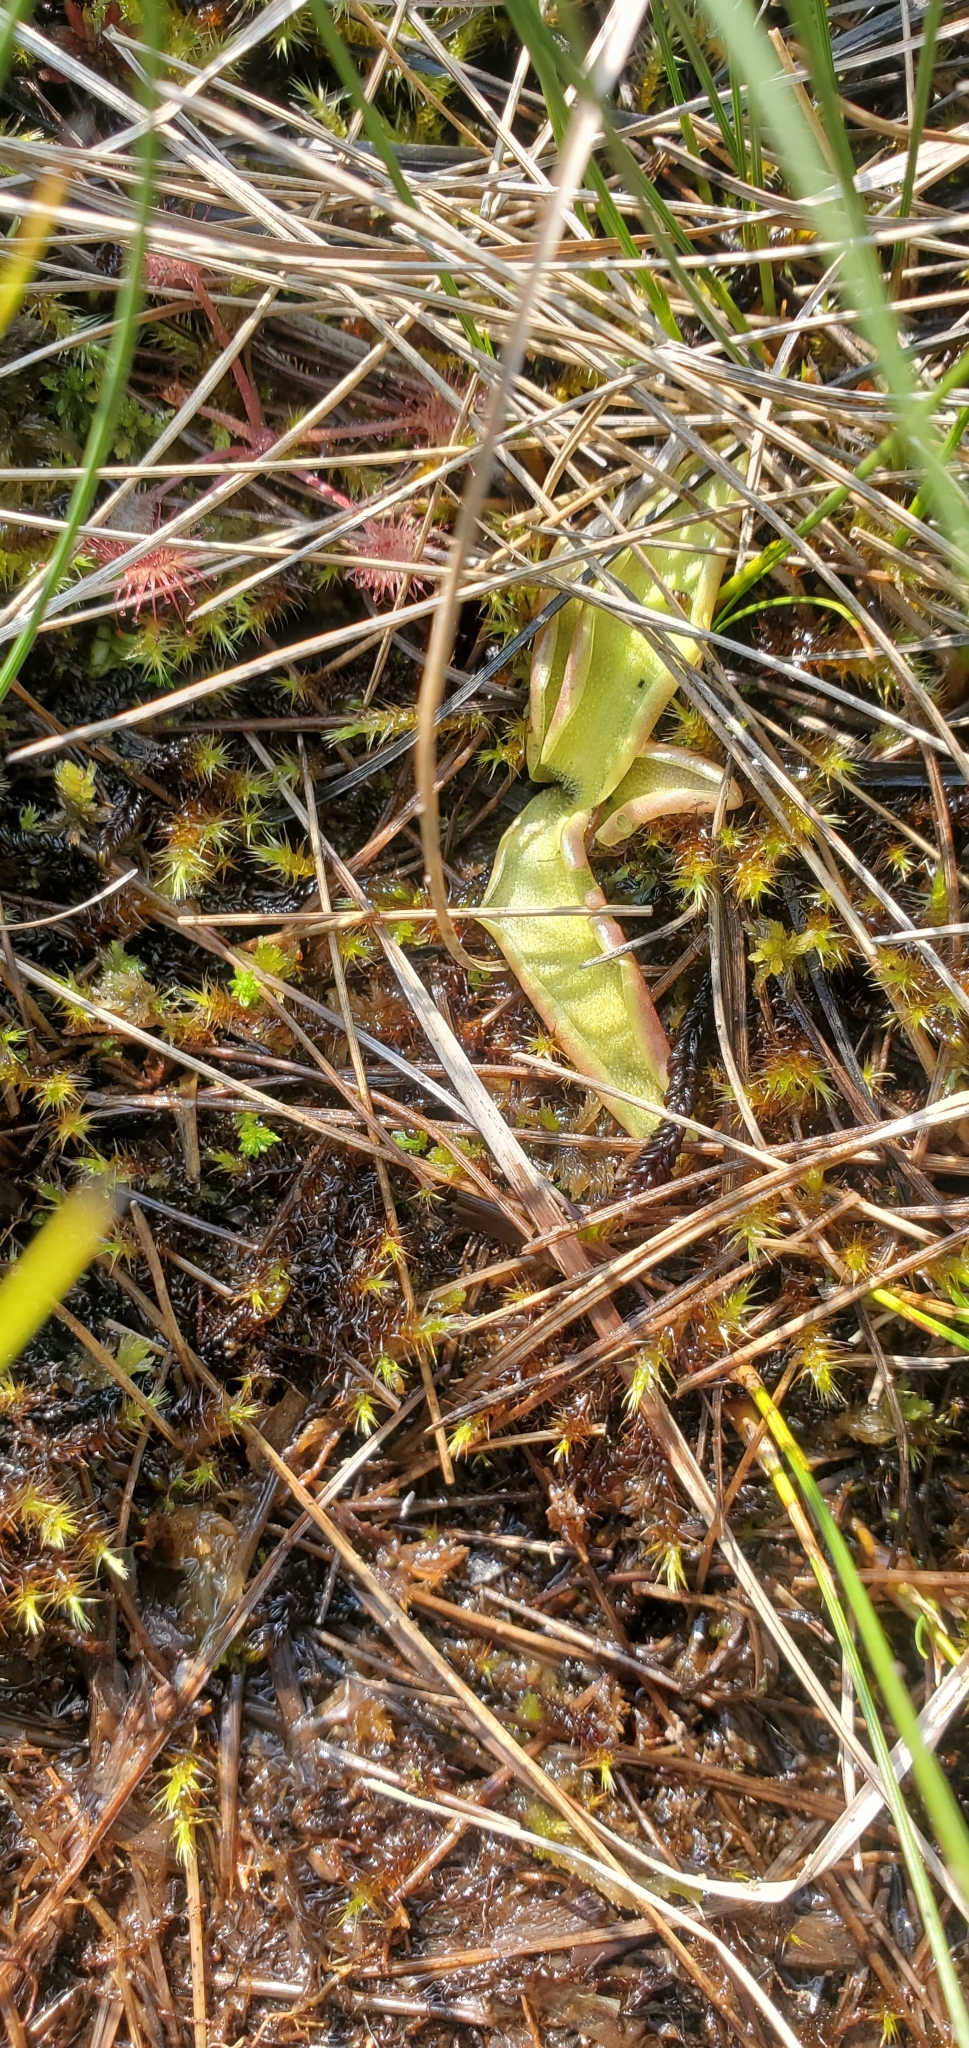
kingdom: Plantae
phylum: Tracheophyta
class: Magnoliopsida
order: Lamiales
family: Lentibulariaceae
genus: Pinguicula
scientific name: Pinguicula vulgaris
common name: Common butterwort
